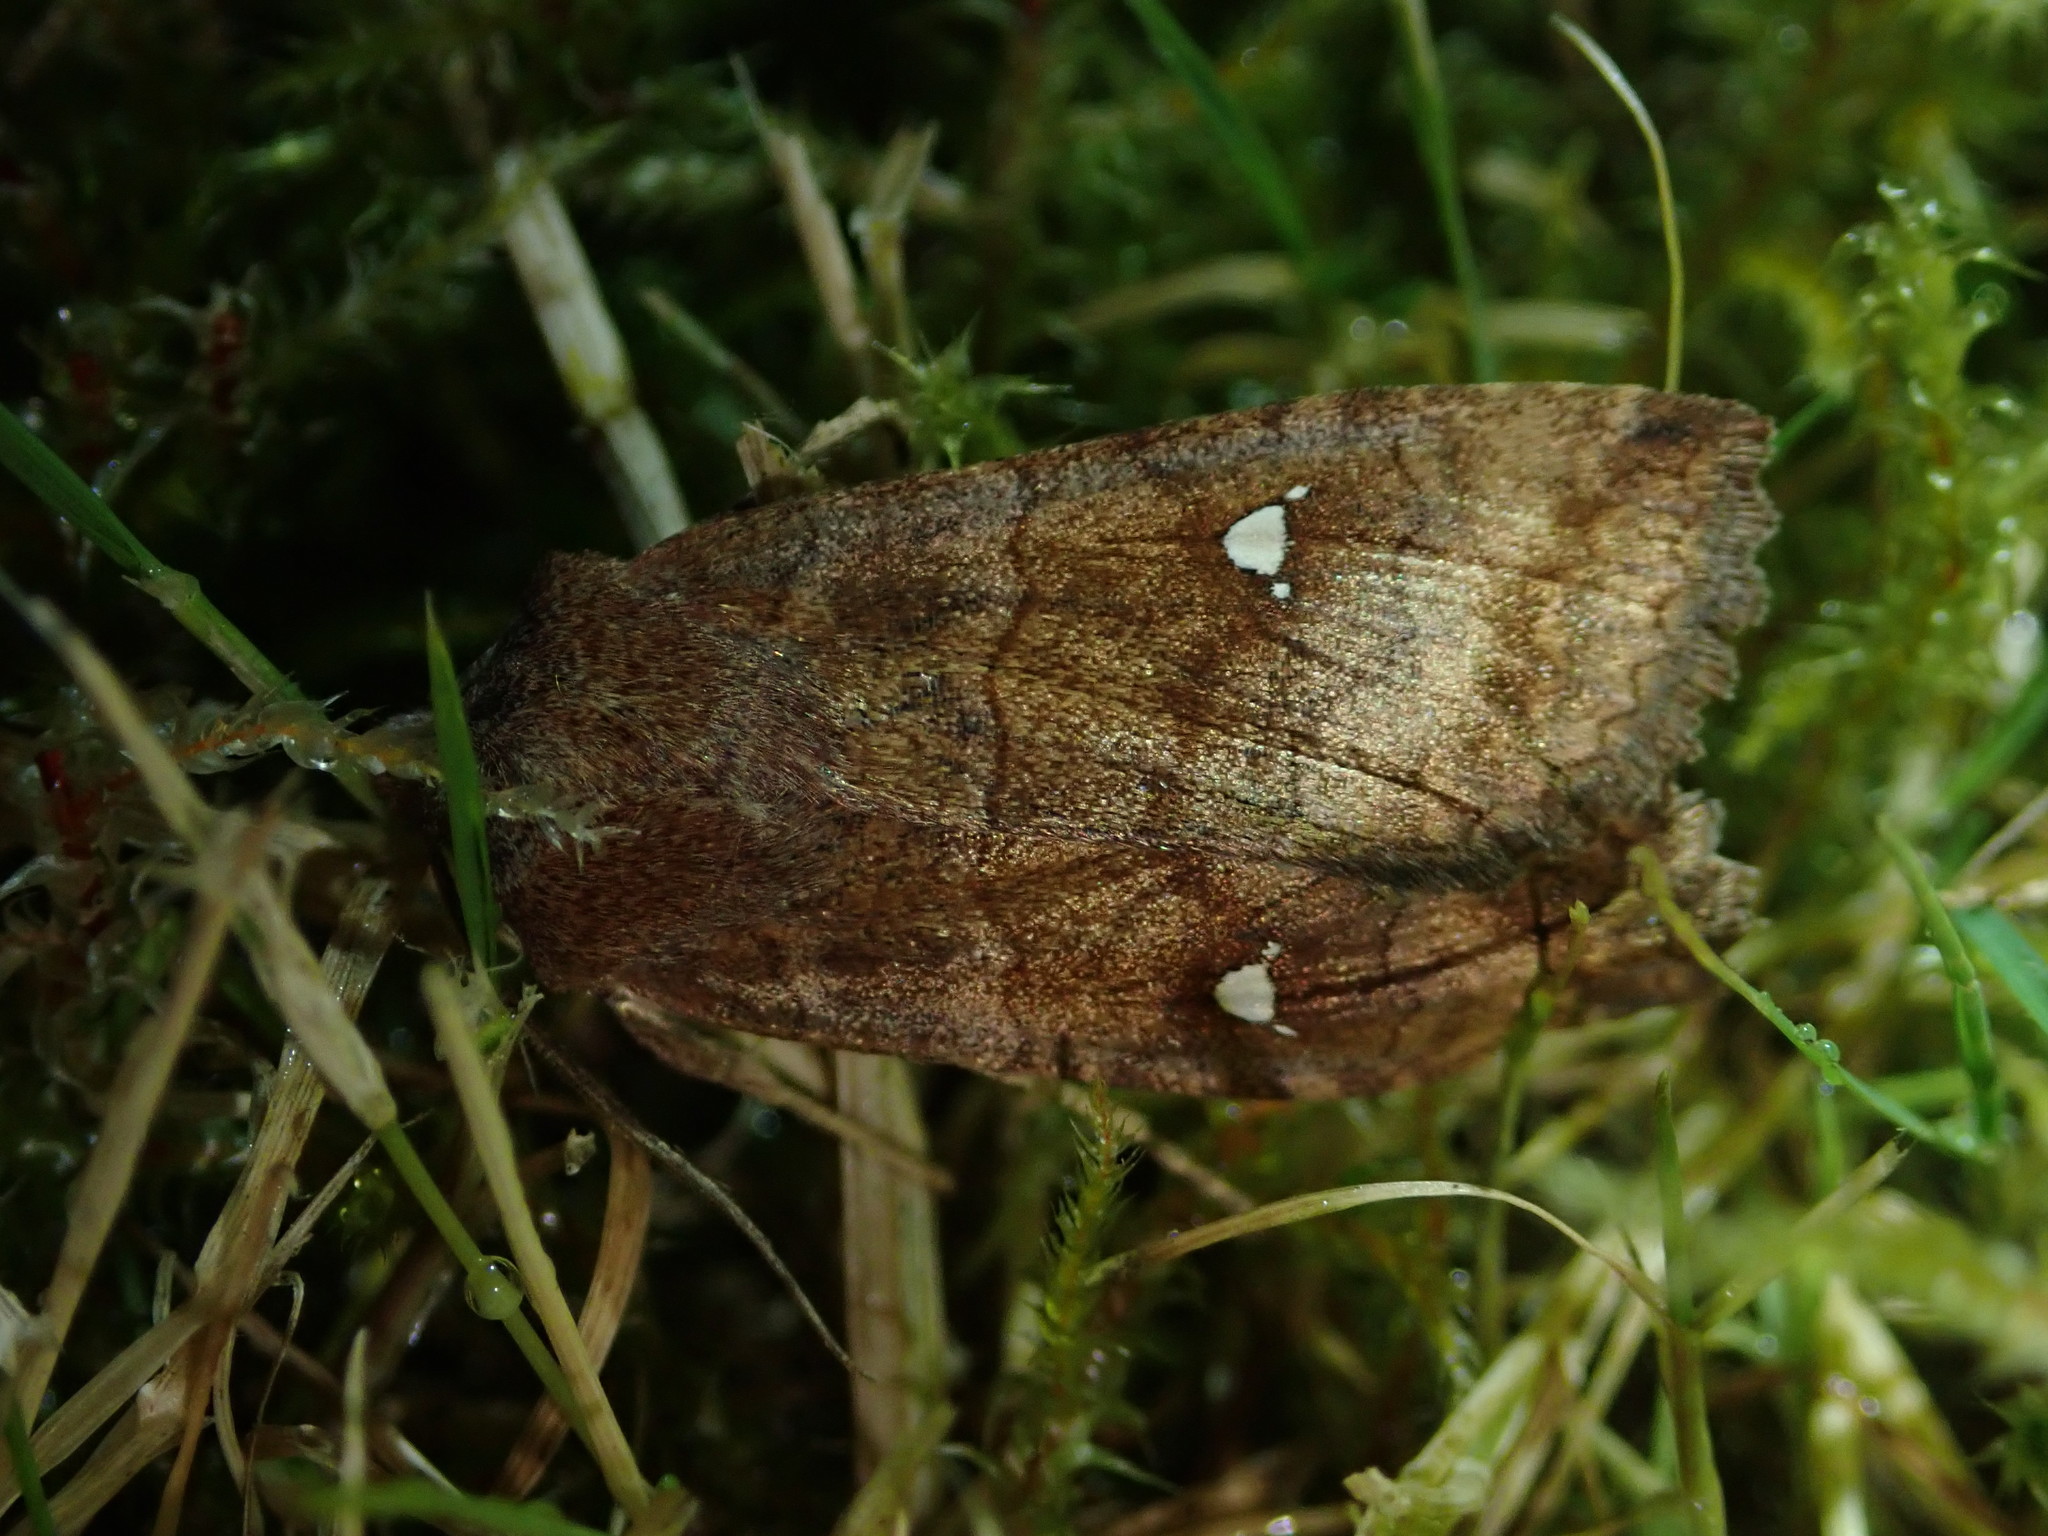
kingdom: Animalia
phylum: Arthropoda
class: Insecta
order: Lepidoptera
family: Noctuidae
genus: Eupsilia
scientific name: Eupsilia transversa
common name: Satellite
